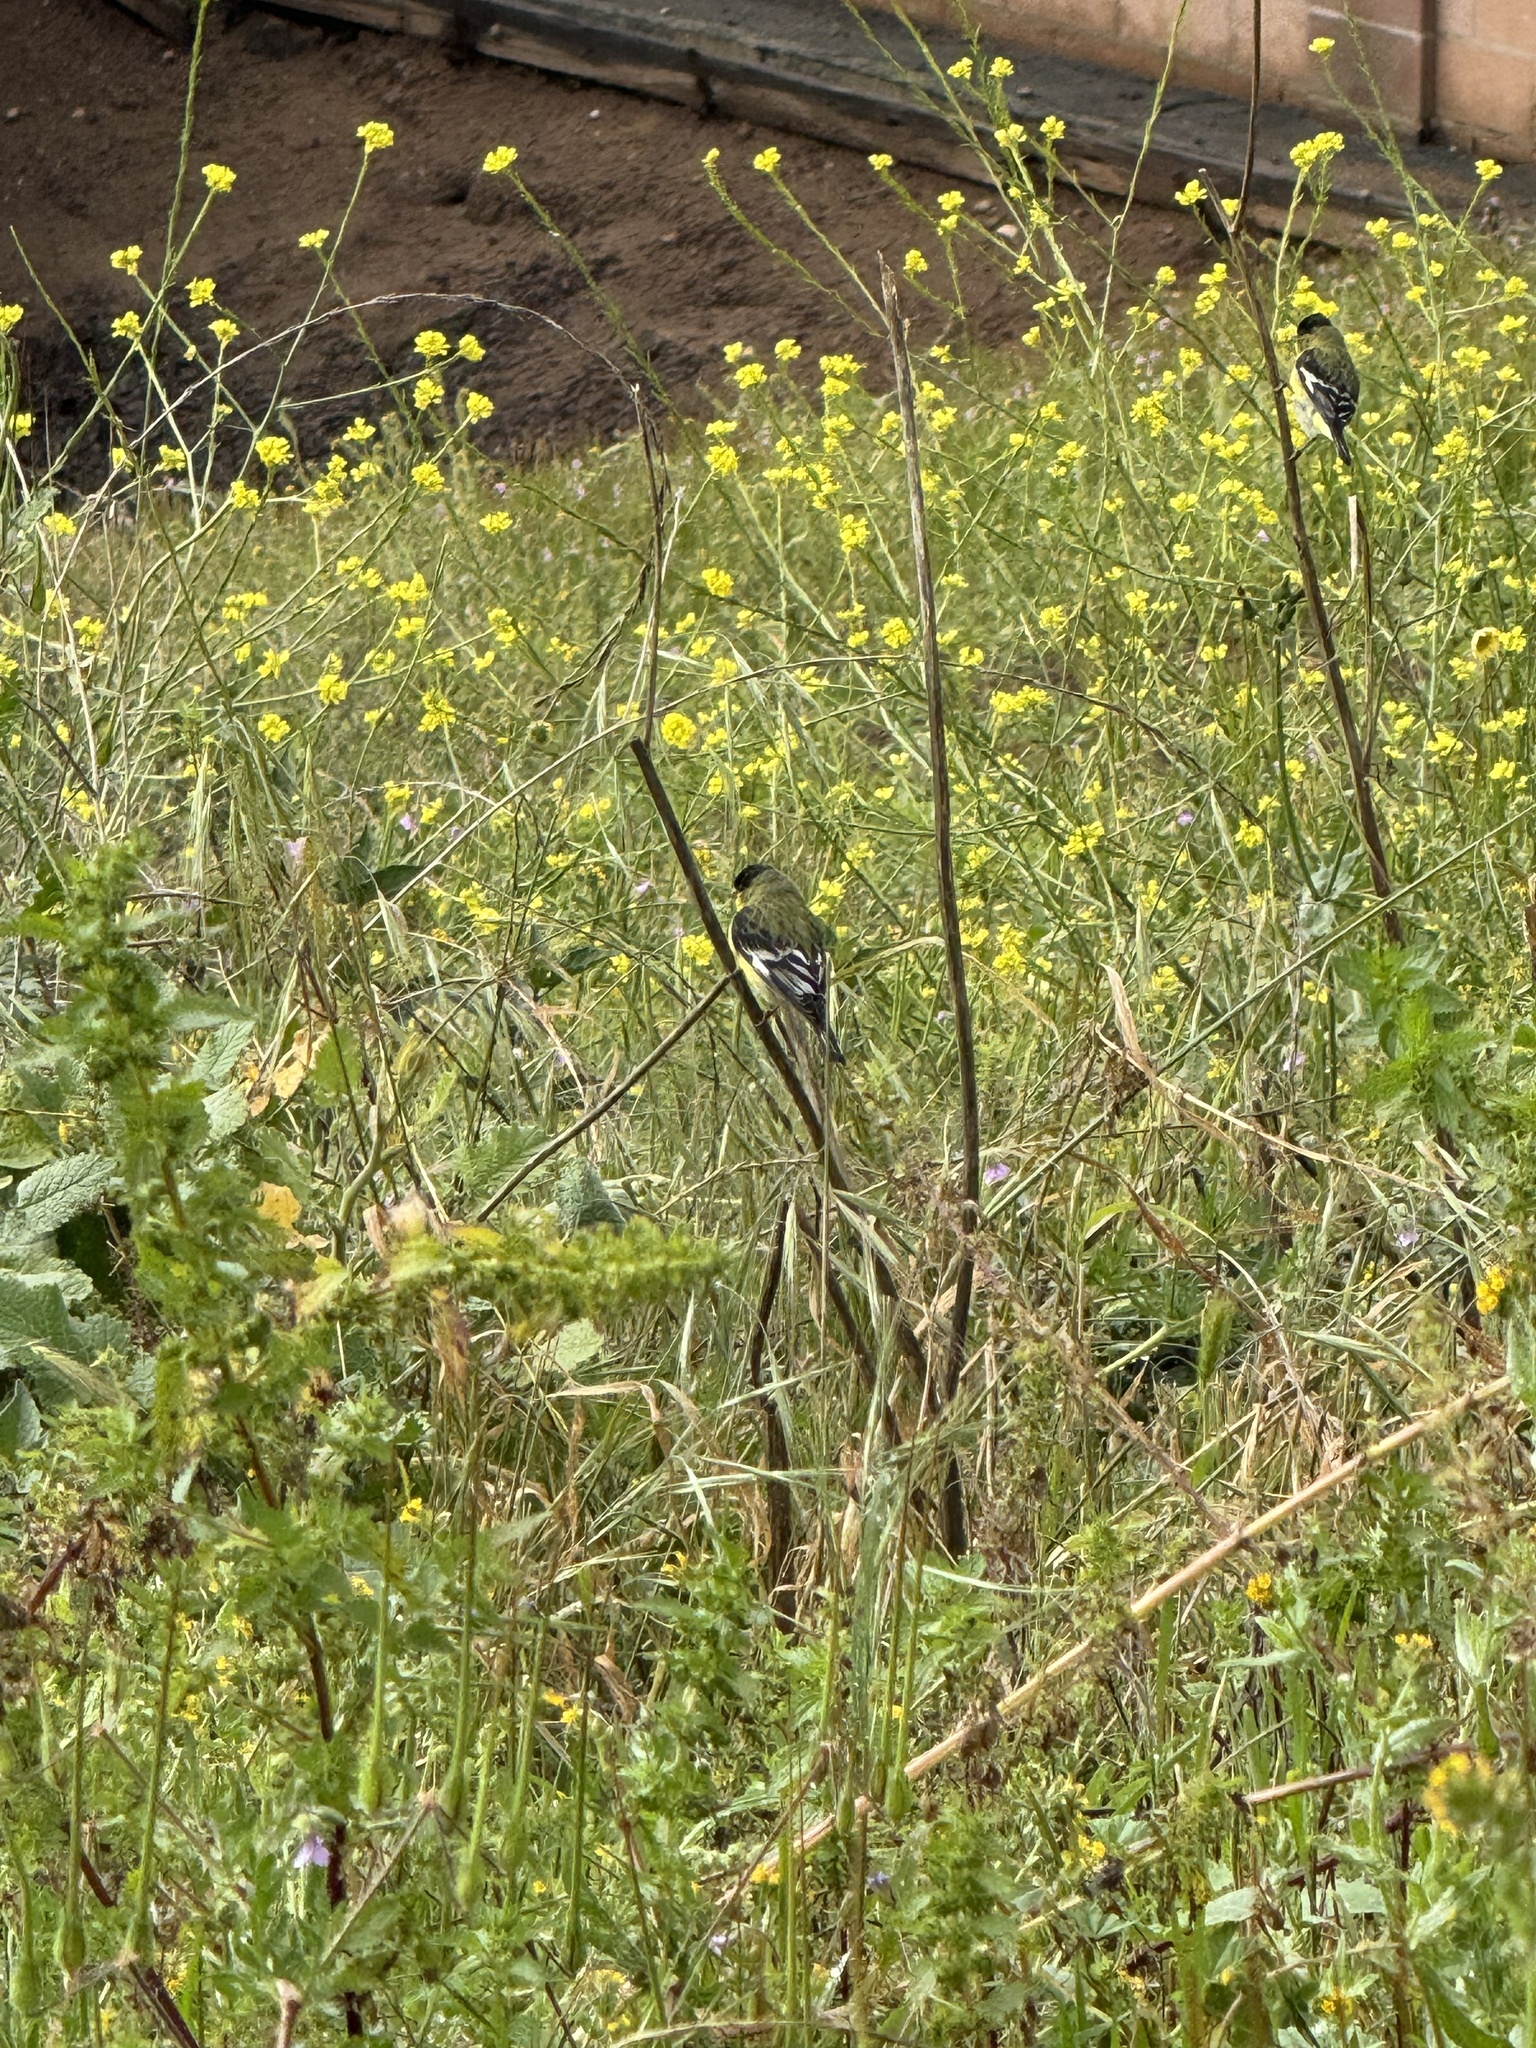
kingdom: Animalia
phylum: Chordata
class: Aves
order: Passeriformes
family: Fringillidae
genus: Spinus
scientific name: Spinus psaltria
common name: Lesser goldfinch
